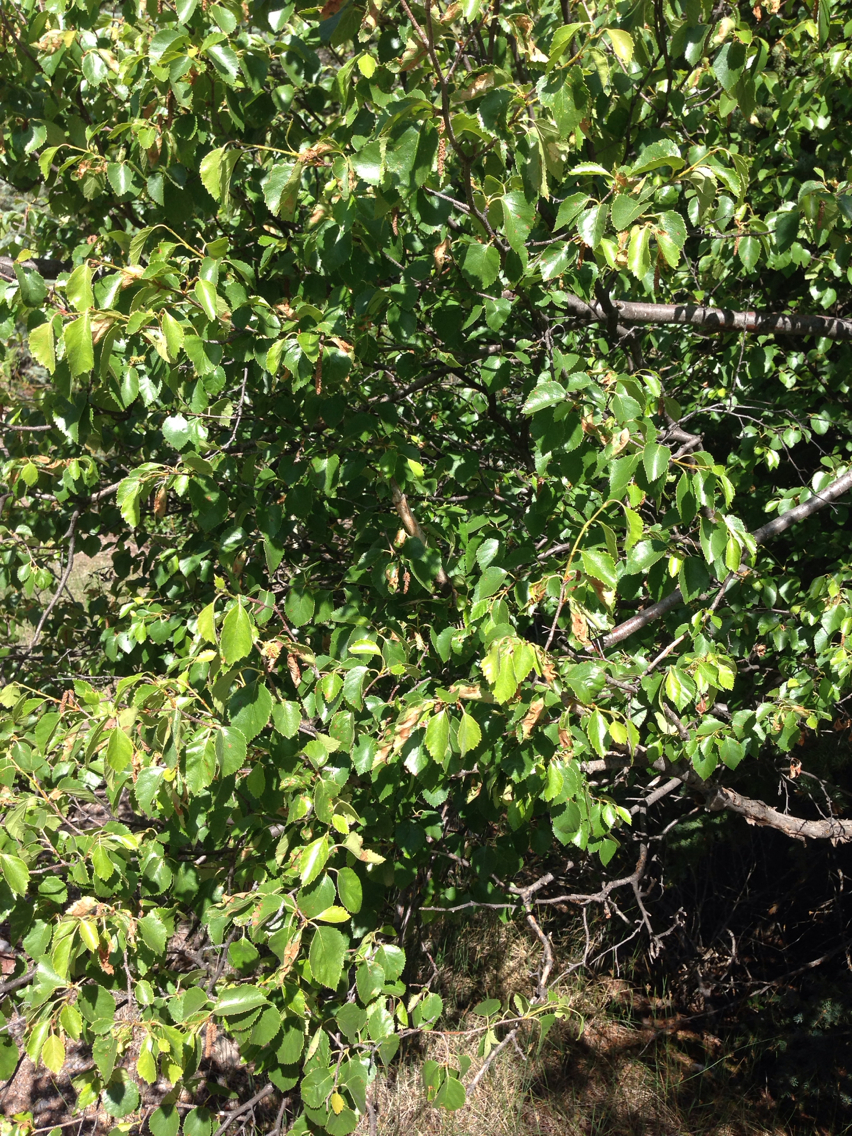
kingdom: Plantae
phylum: Tracheophyta
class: Magnoliopsida
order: Fagales
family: Betulaceae
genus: Betula
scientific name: Betula occidentalis
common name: River birch
